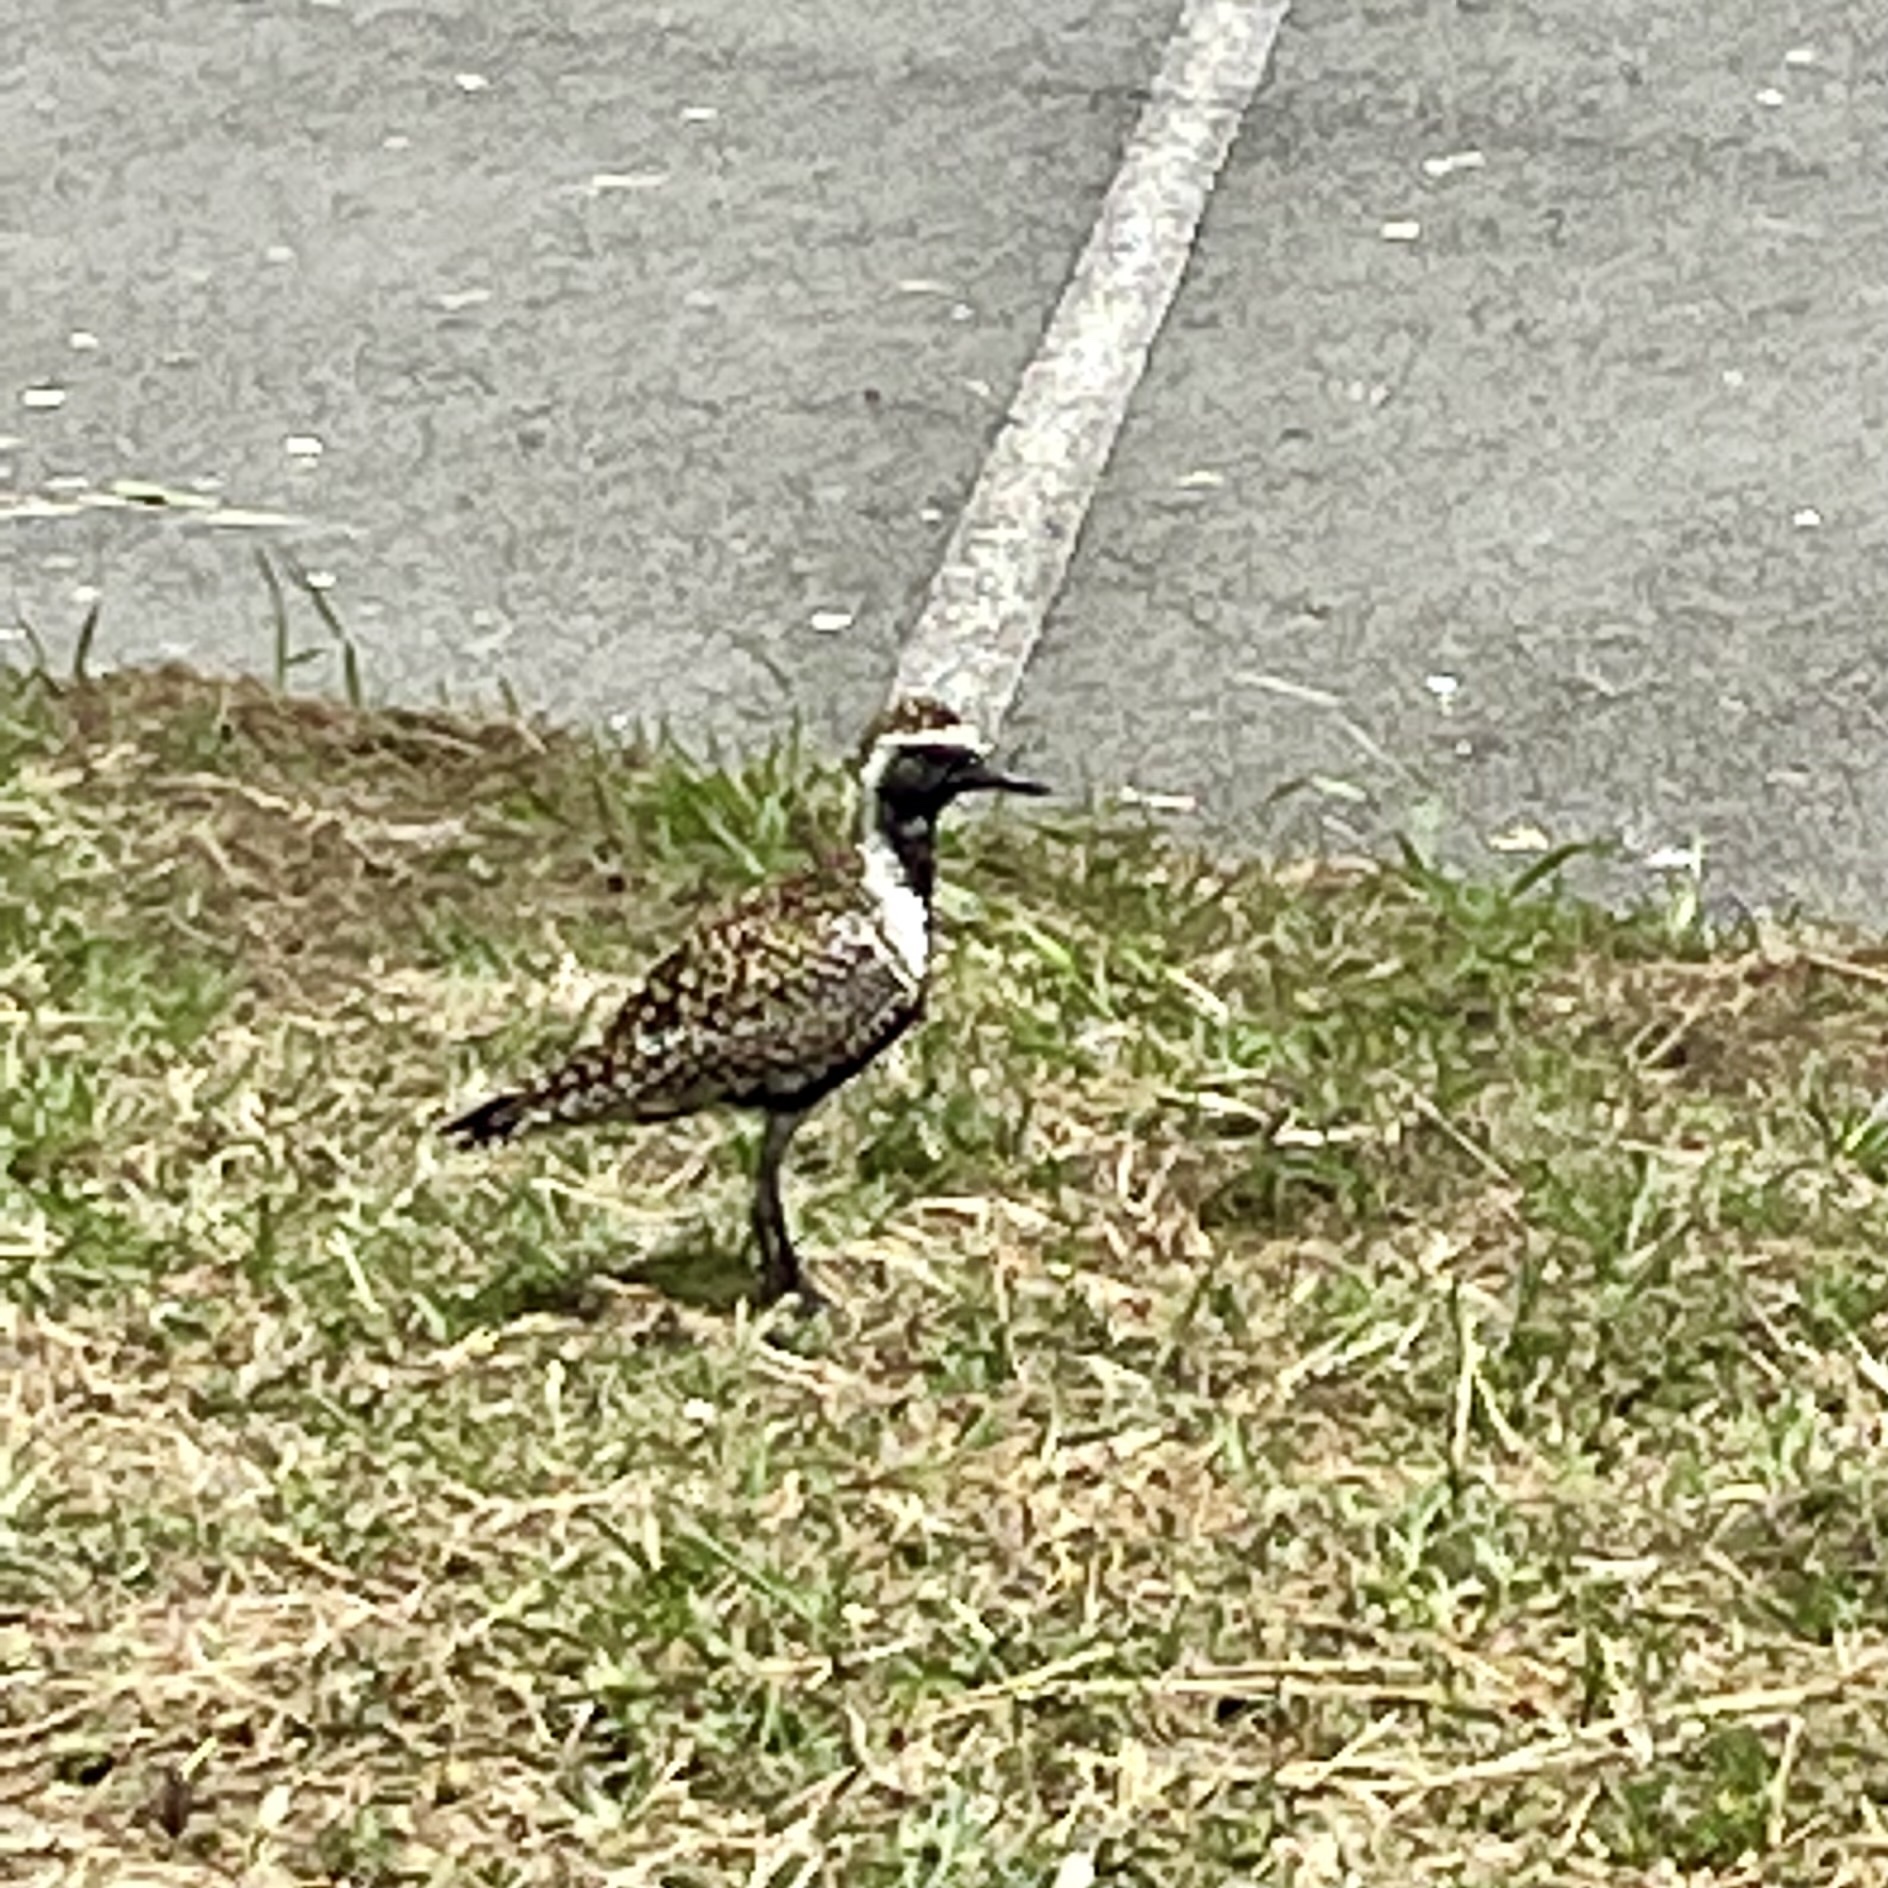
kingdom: Animalia
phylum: Chordata
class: Aves
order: Charadriiformes
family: Charadriidae
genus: Pluvialis
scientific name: Pluvialis fulva
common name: Pacific golden plover
